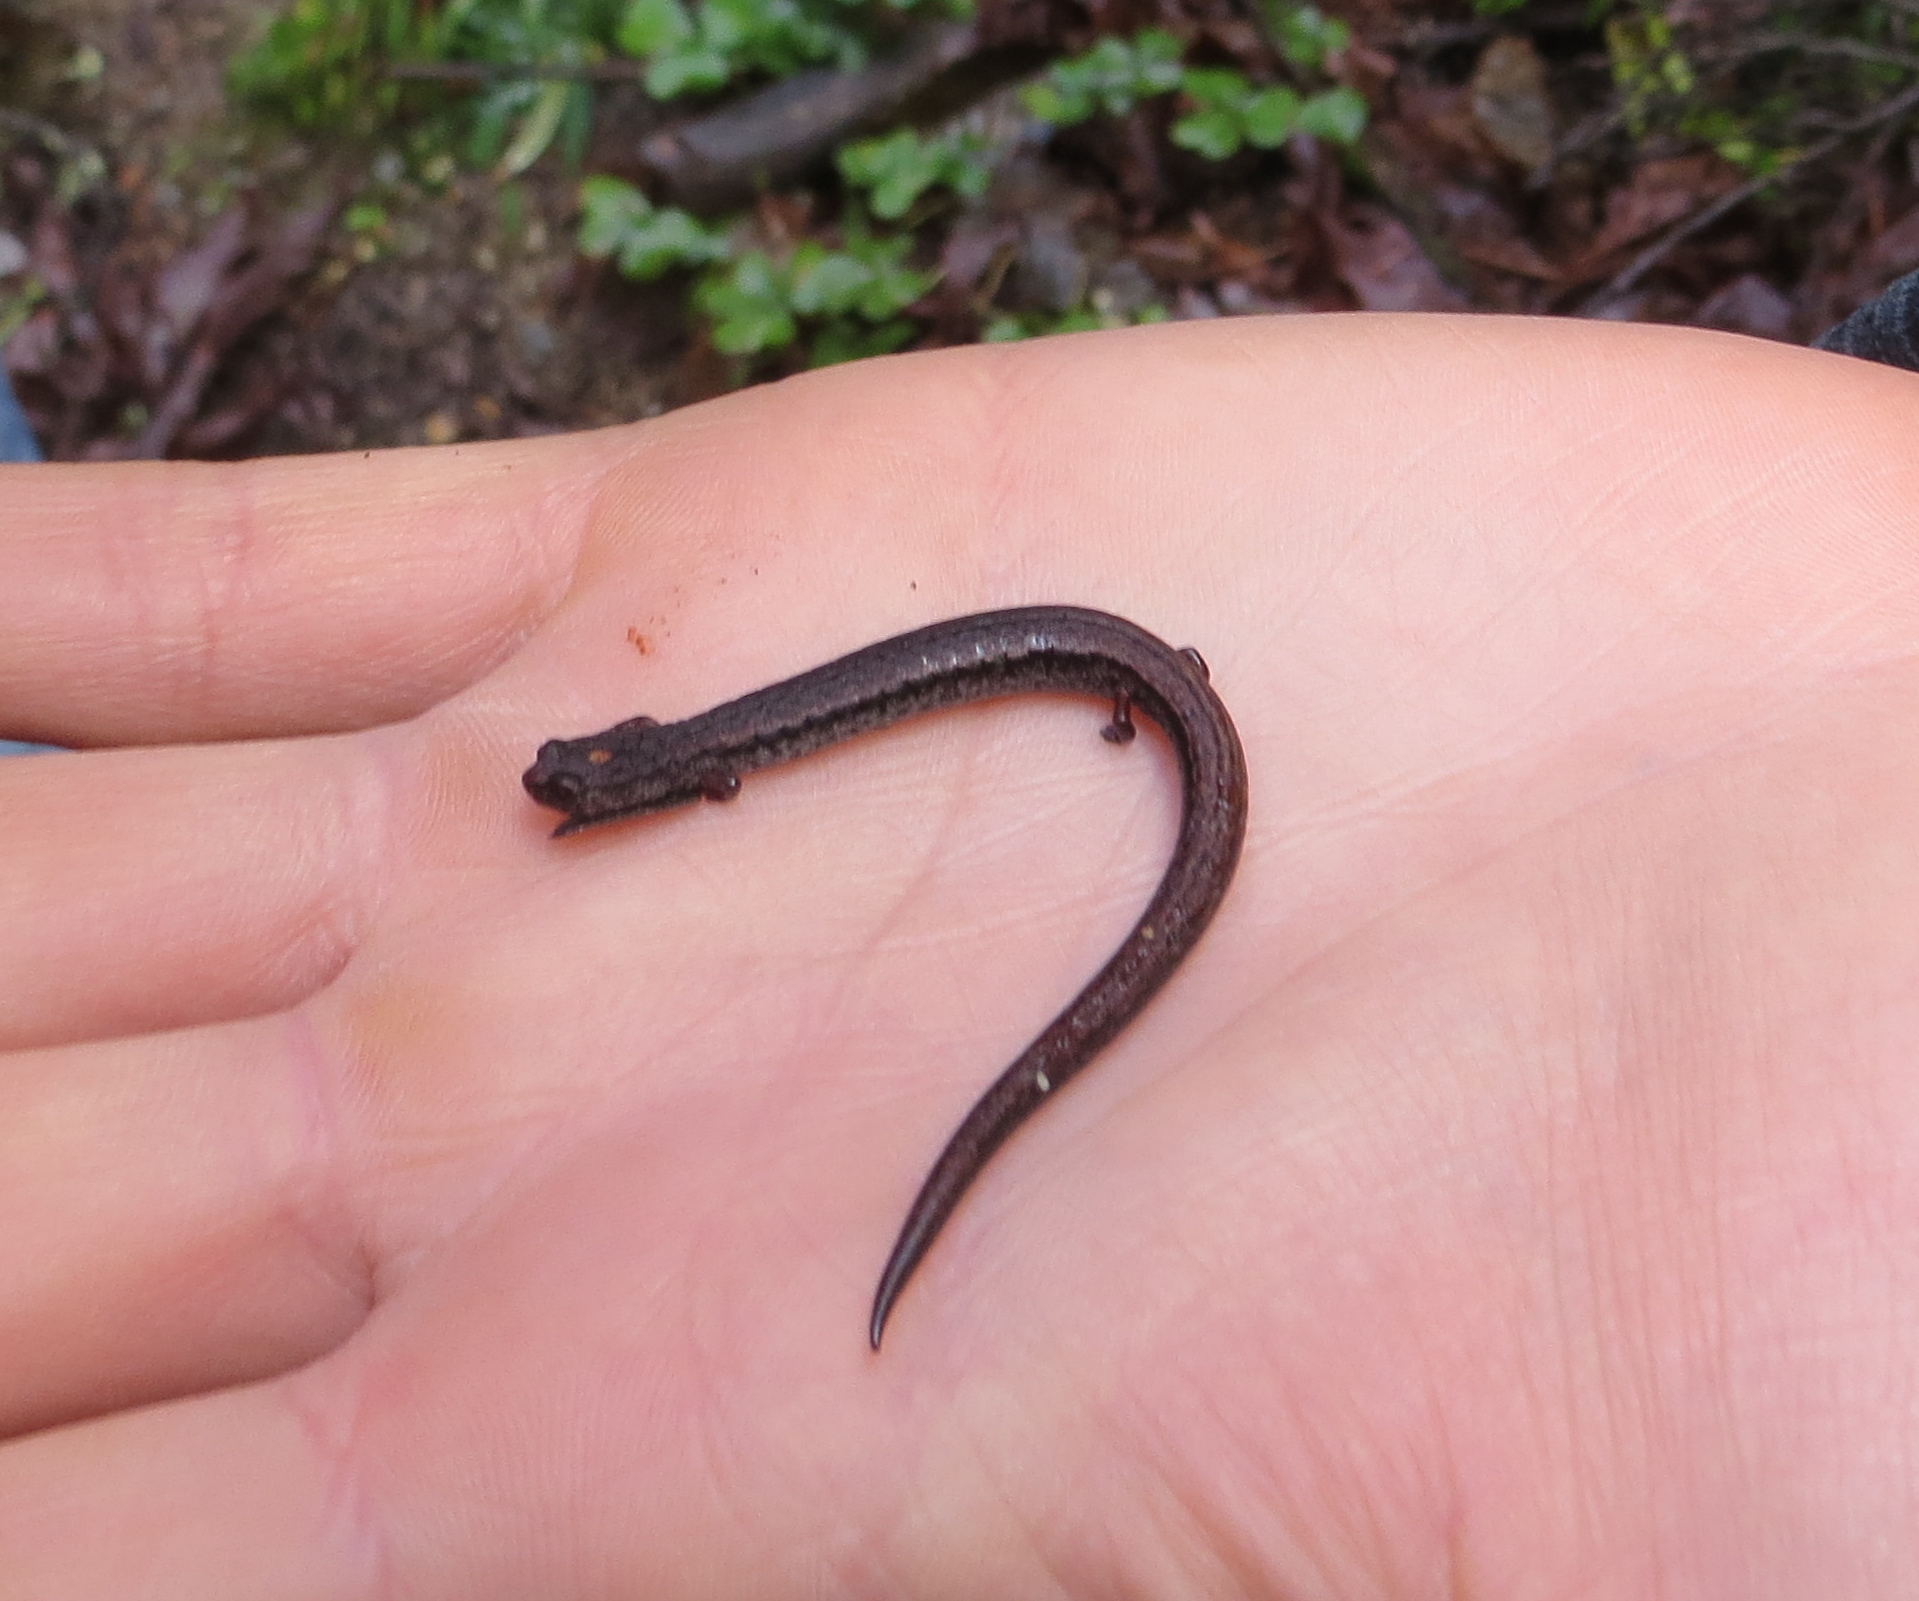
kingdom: Animalia
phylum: Chordata
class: Amphibia
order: Caudata
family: Plethodontidae
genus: Batrachoseps
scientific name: Batrachoseps gavilanensis
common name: Gabilan mountains slender salamander
